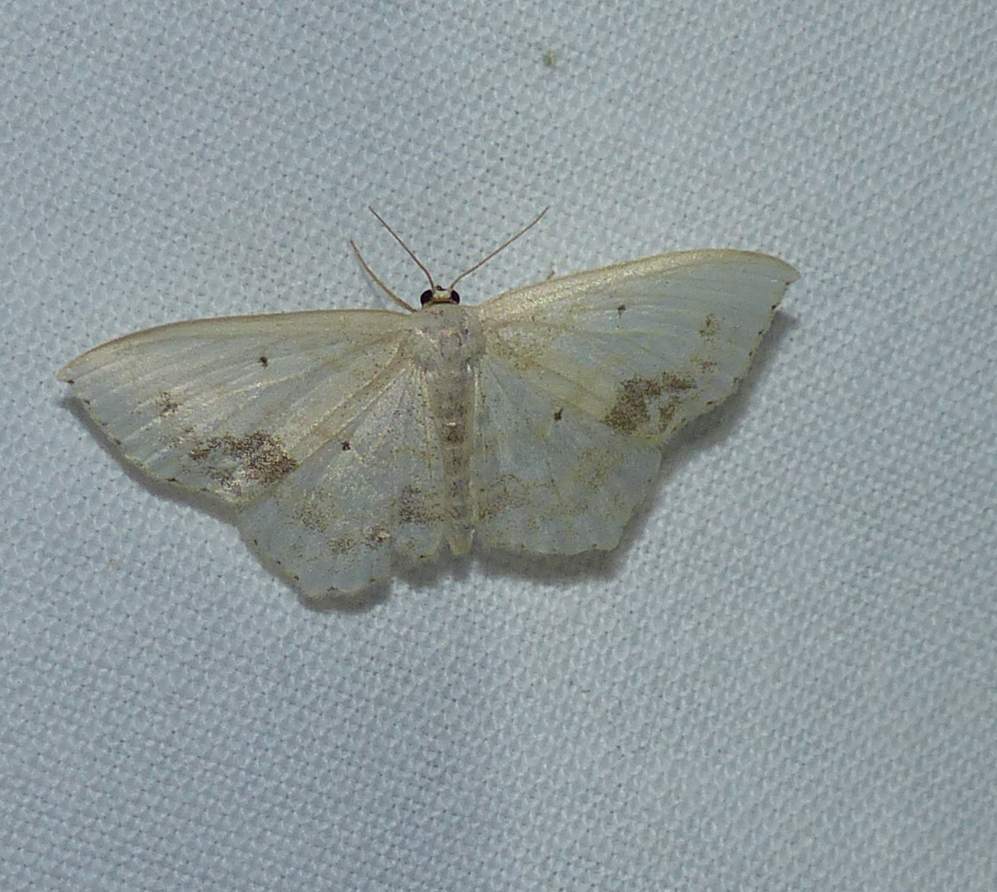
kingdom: Animalia
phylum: Arthropoda
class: Insecta
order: Lepidoptera
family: Geometridae
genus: Scopula
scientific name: Scopula limboundata
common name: Large lace border
